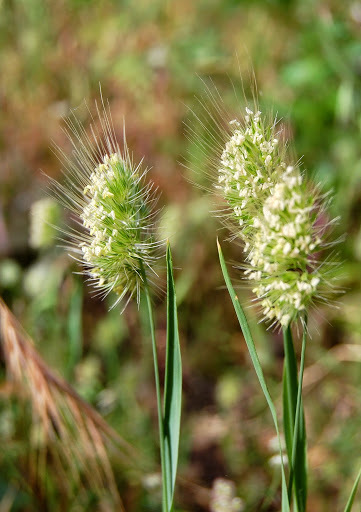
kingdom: Plantae
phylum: Tracheophyta
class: Liliopsida
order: Poales
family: Poaceae
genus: Cynosurus
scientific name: Cynosurus echinatus
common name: Rough dog's-tail
